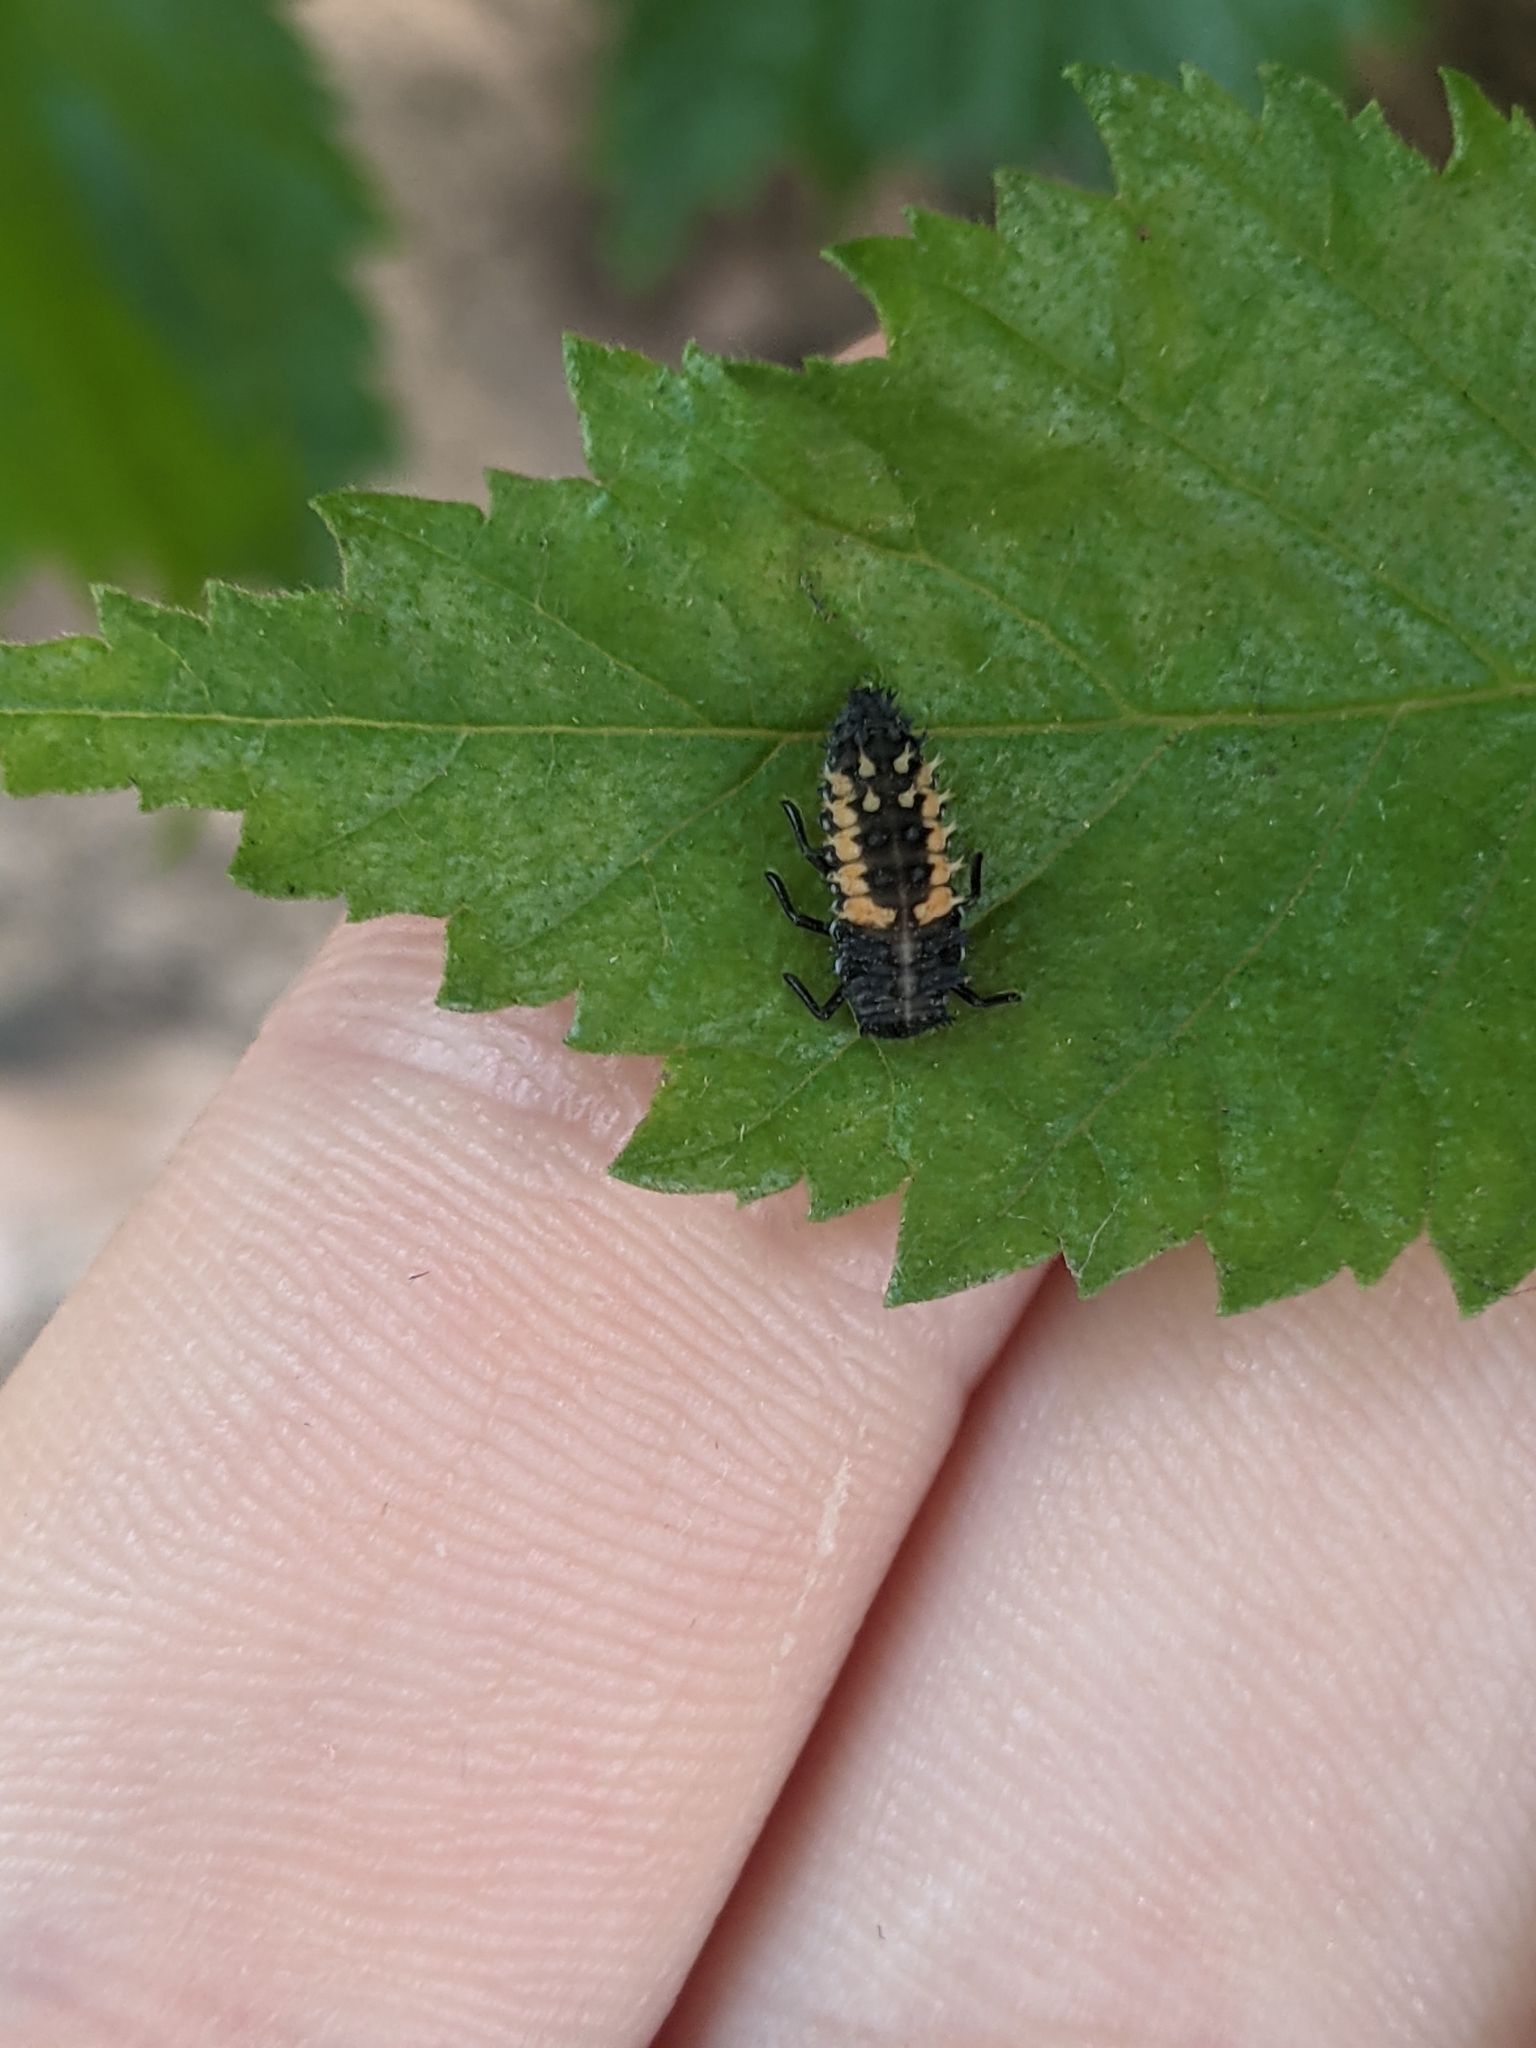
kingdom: Animalia
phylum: Arthropoda
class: Insecta
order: Coleoptera
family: Coccinellidae
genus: Harmonia
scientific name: Harmonia axyridis
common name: Harlequin ladybird
